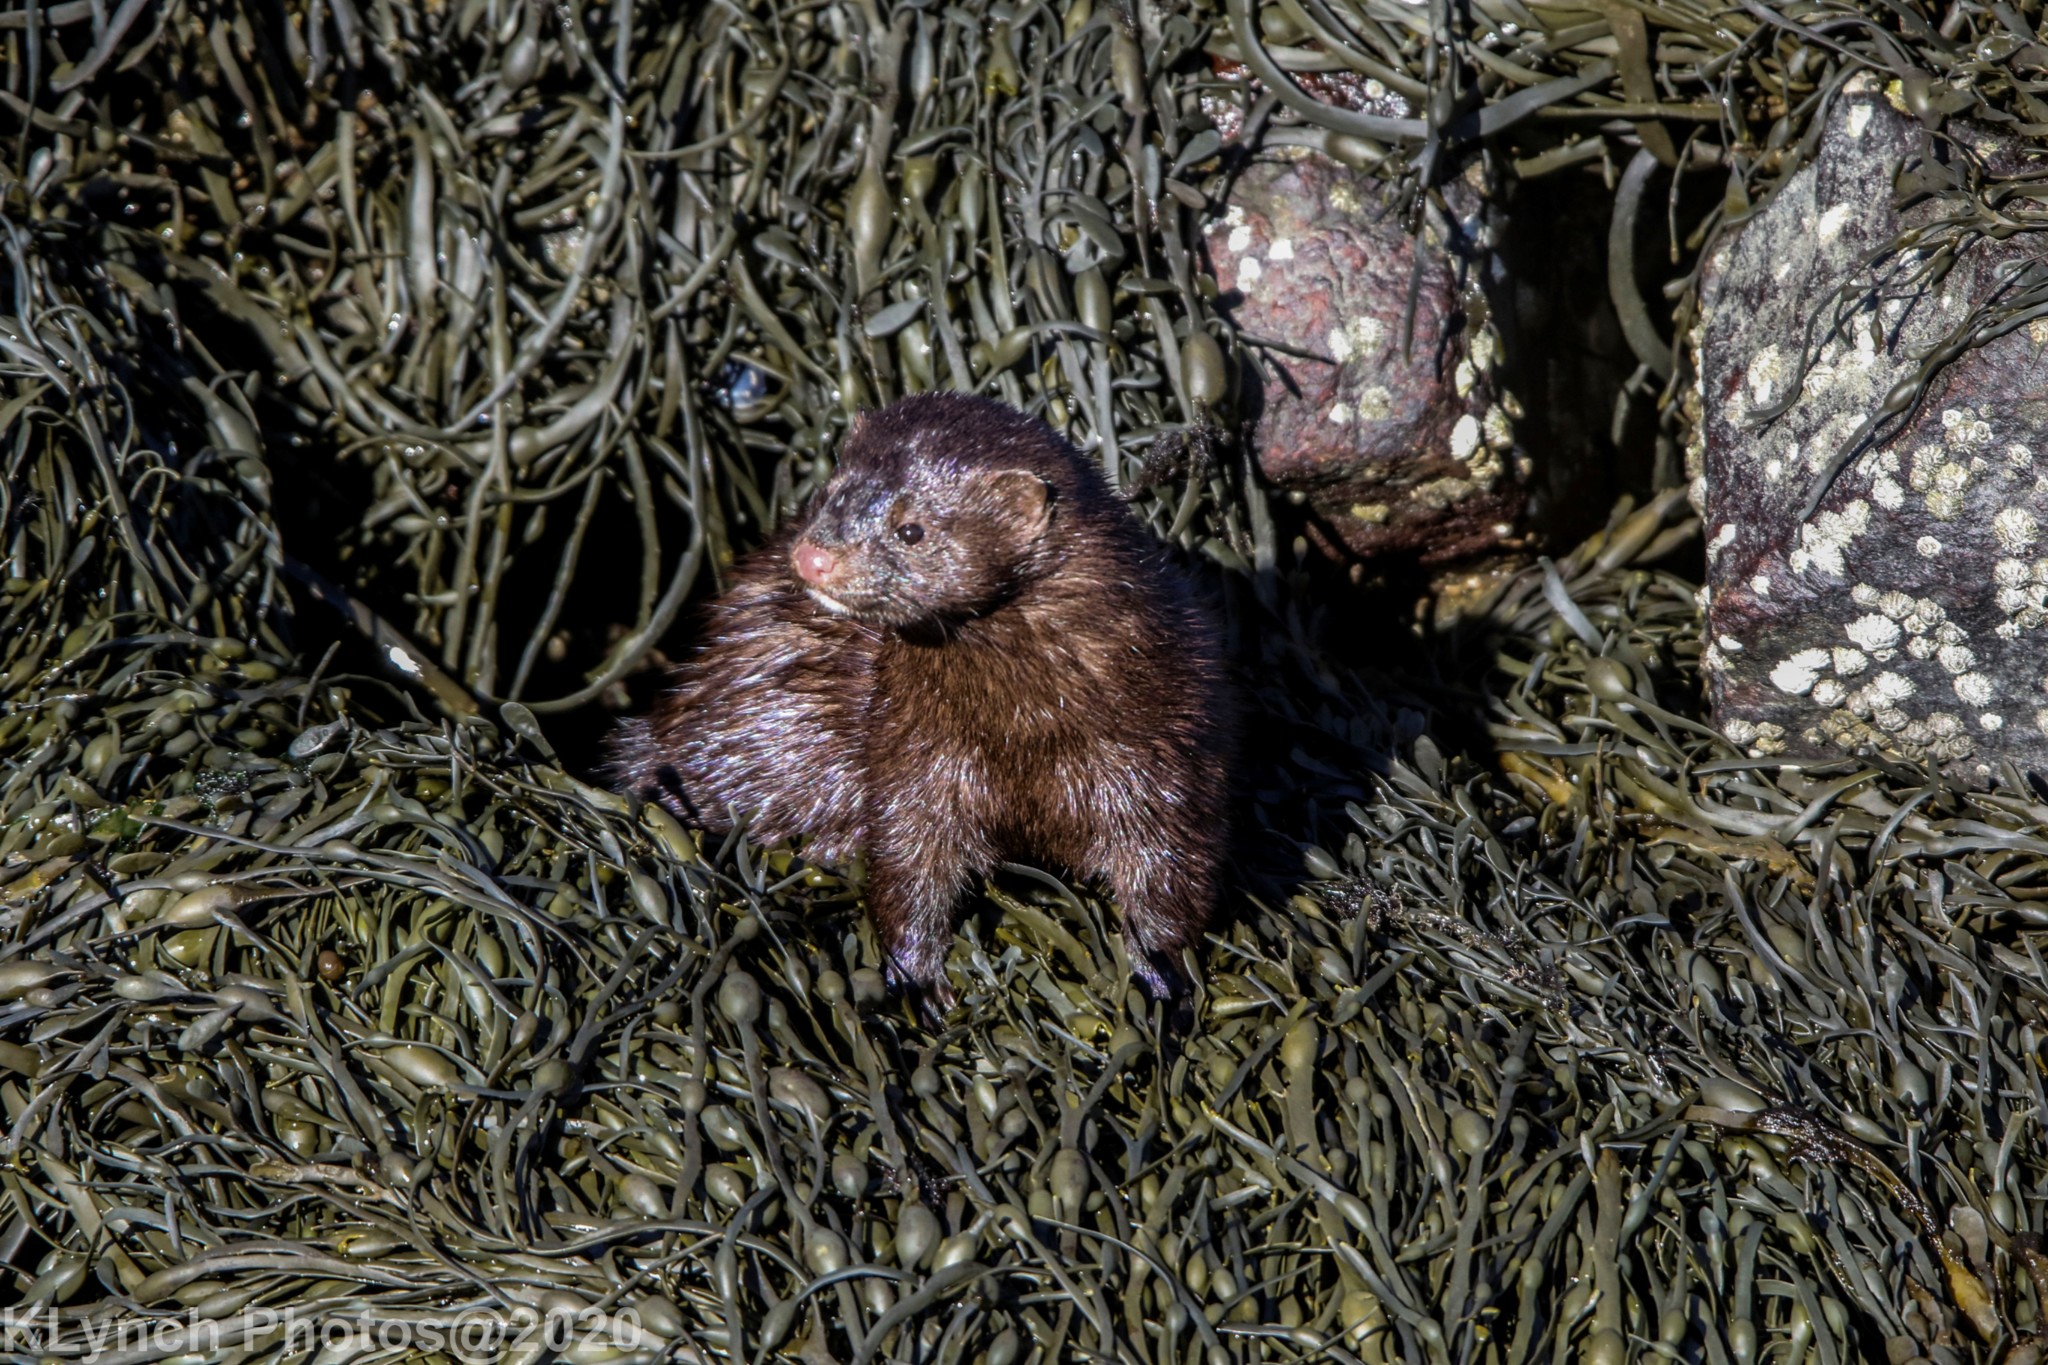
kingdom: Animalia
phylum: Chordata
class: Mammalia
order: Carnivora
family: Mustelidae
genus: Mustela
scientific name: Mustela
